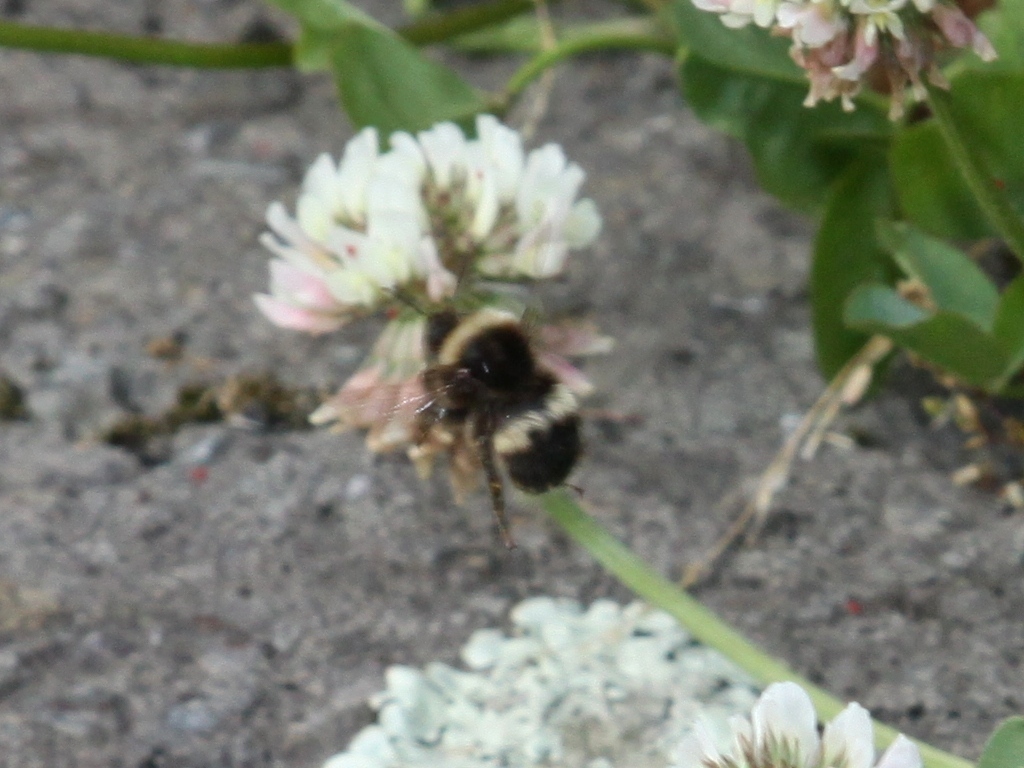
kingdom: Animalia
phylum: Arthropoda
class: Insecta
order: Hymenoptera
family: Apidae
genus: Bombus
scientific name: Bombus terrestris
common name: Buff-tailed bumblebee
